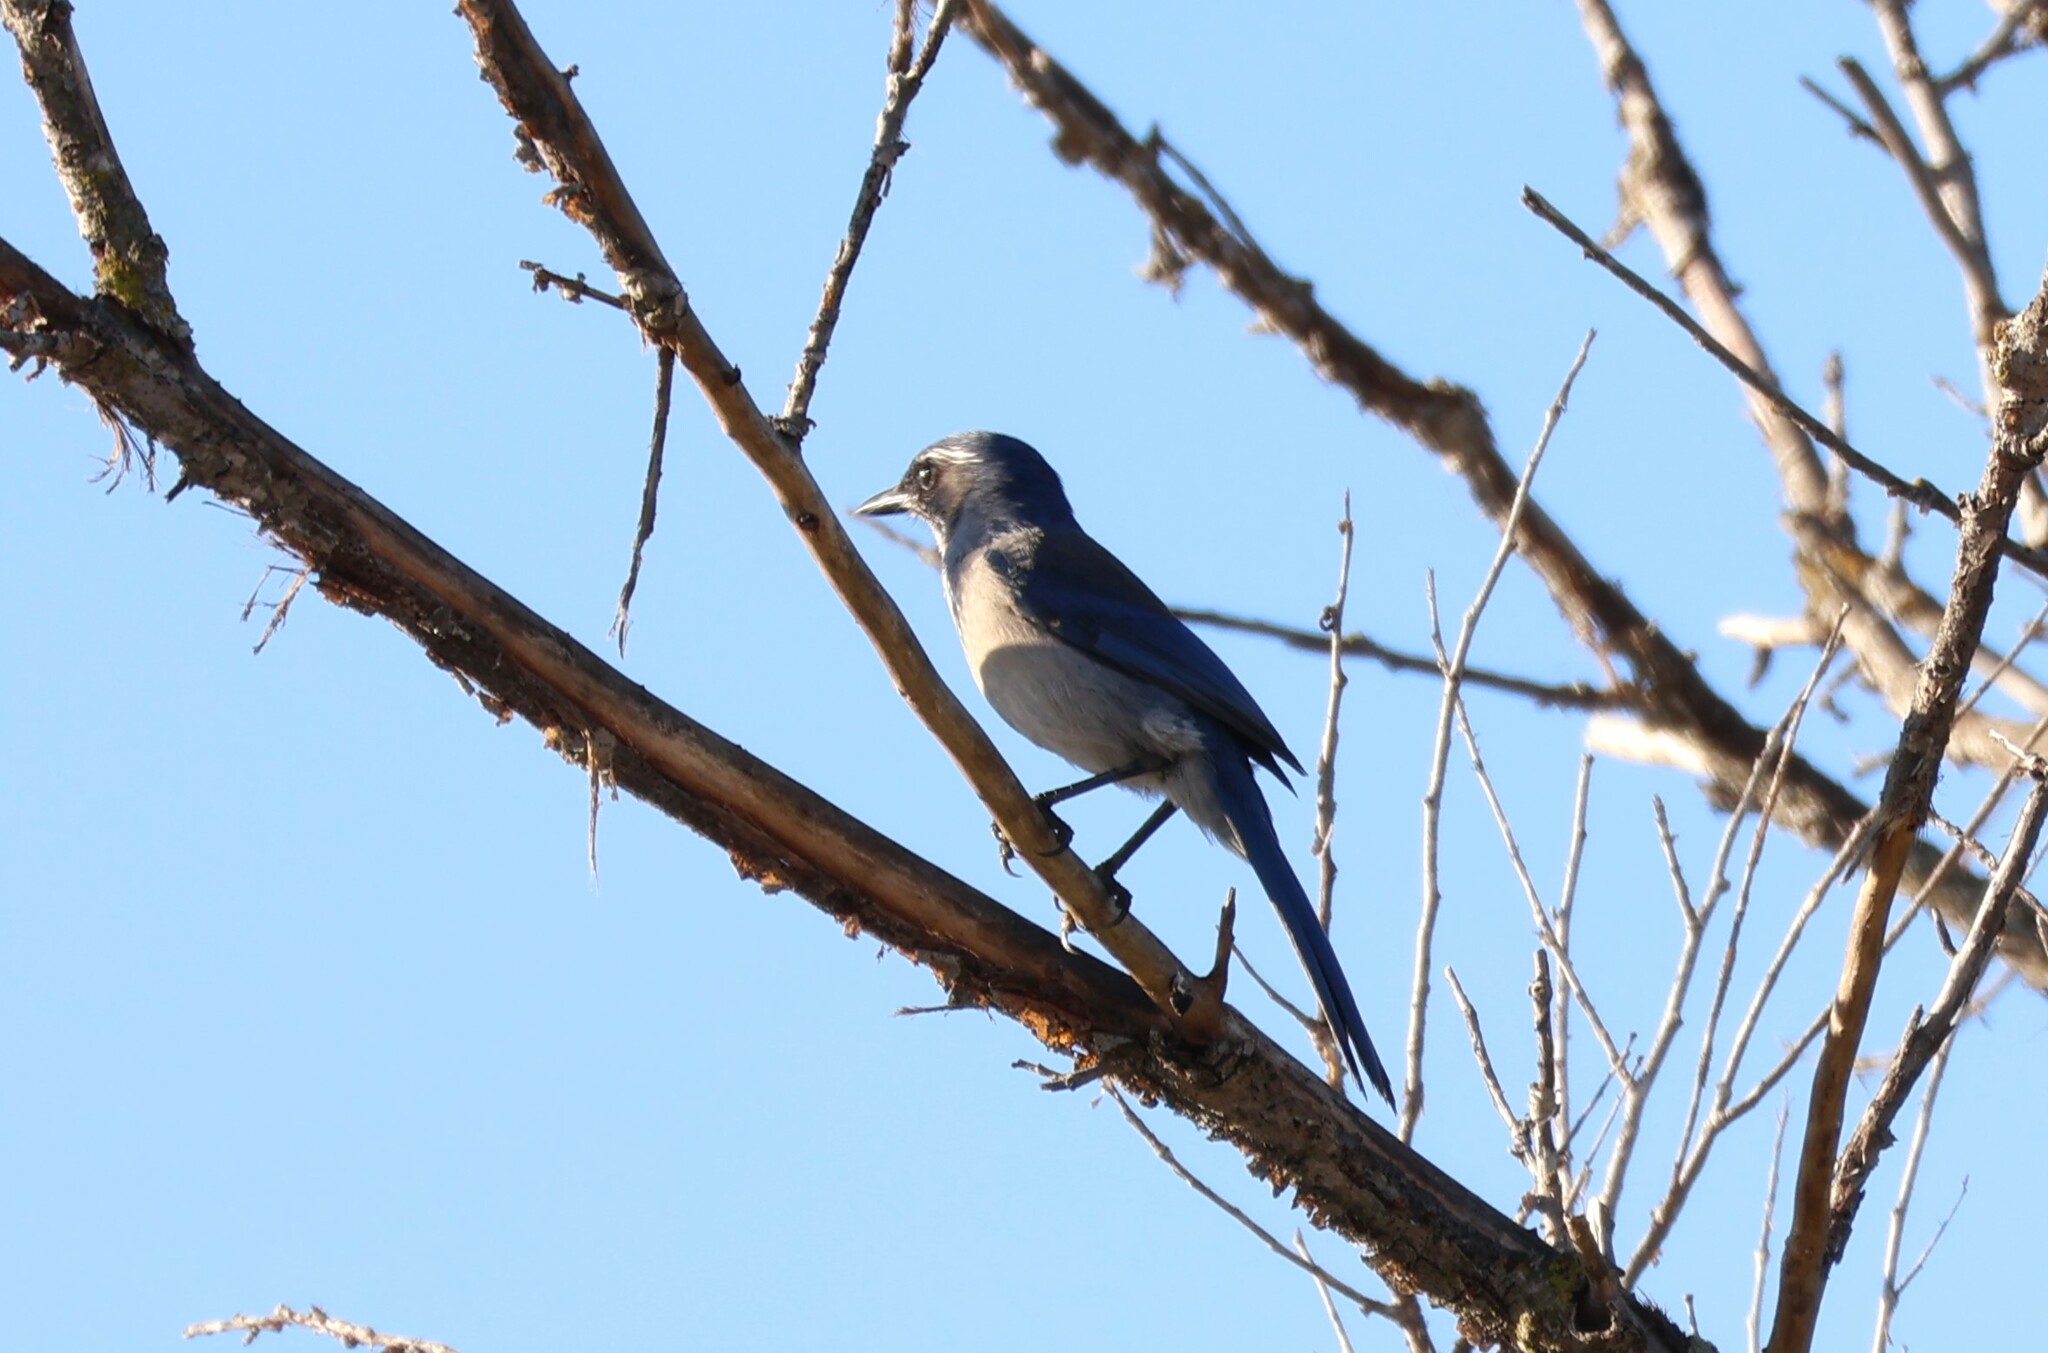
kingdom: Animalia
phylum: Chordata
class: Aves
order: Passeriformes
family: Corvidae
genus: Aphelocoma
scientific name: Aphelocoma californica
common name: California scrub-jay
